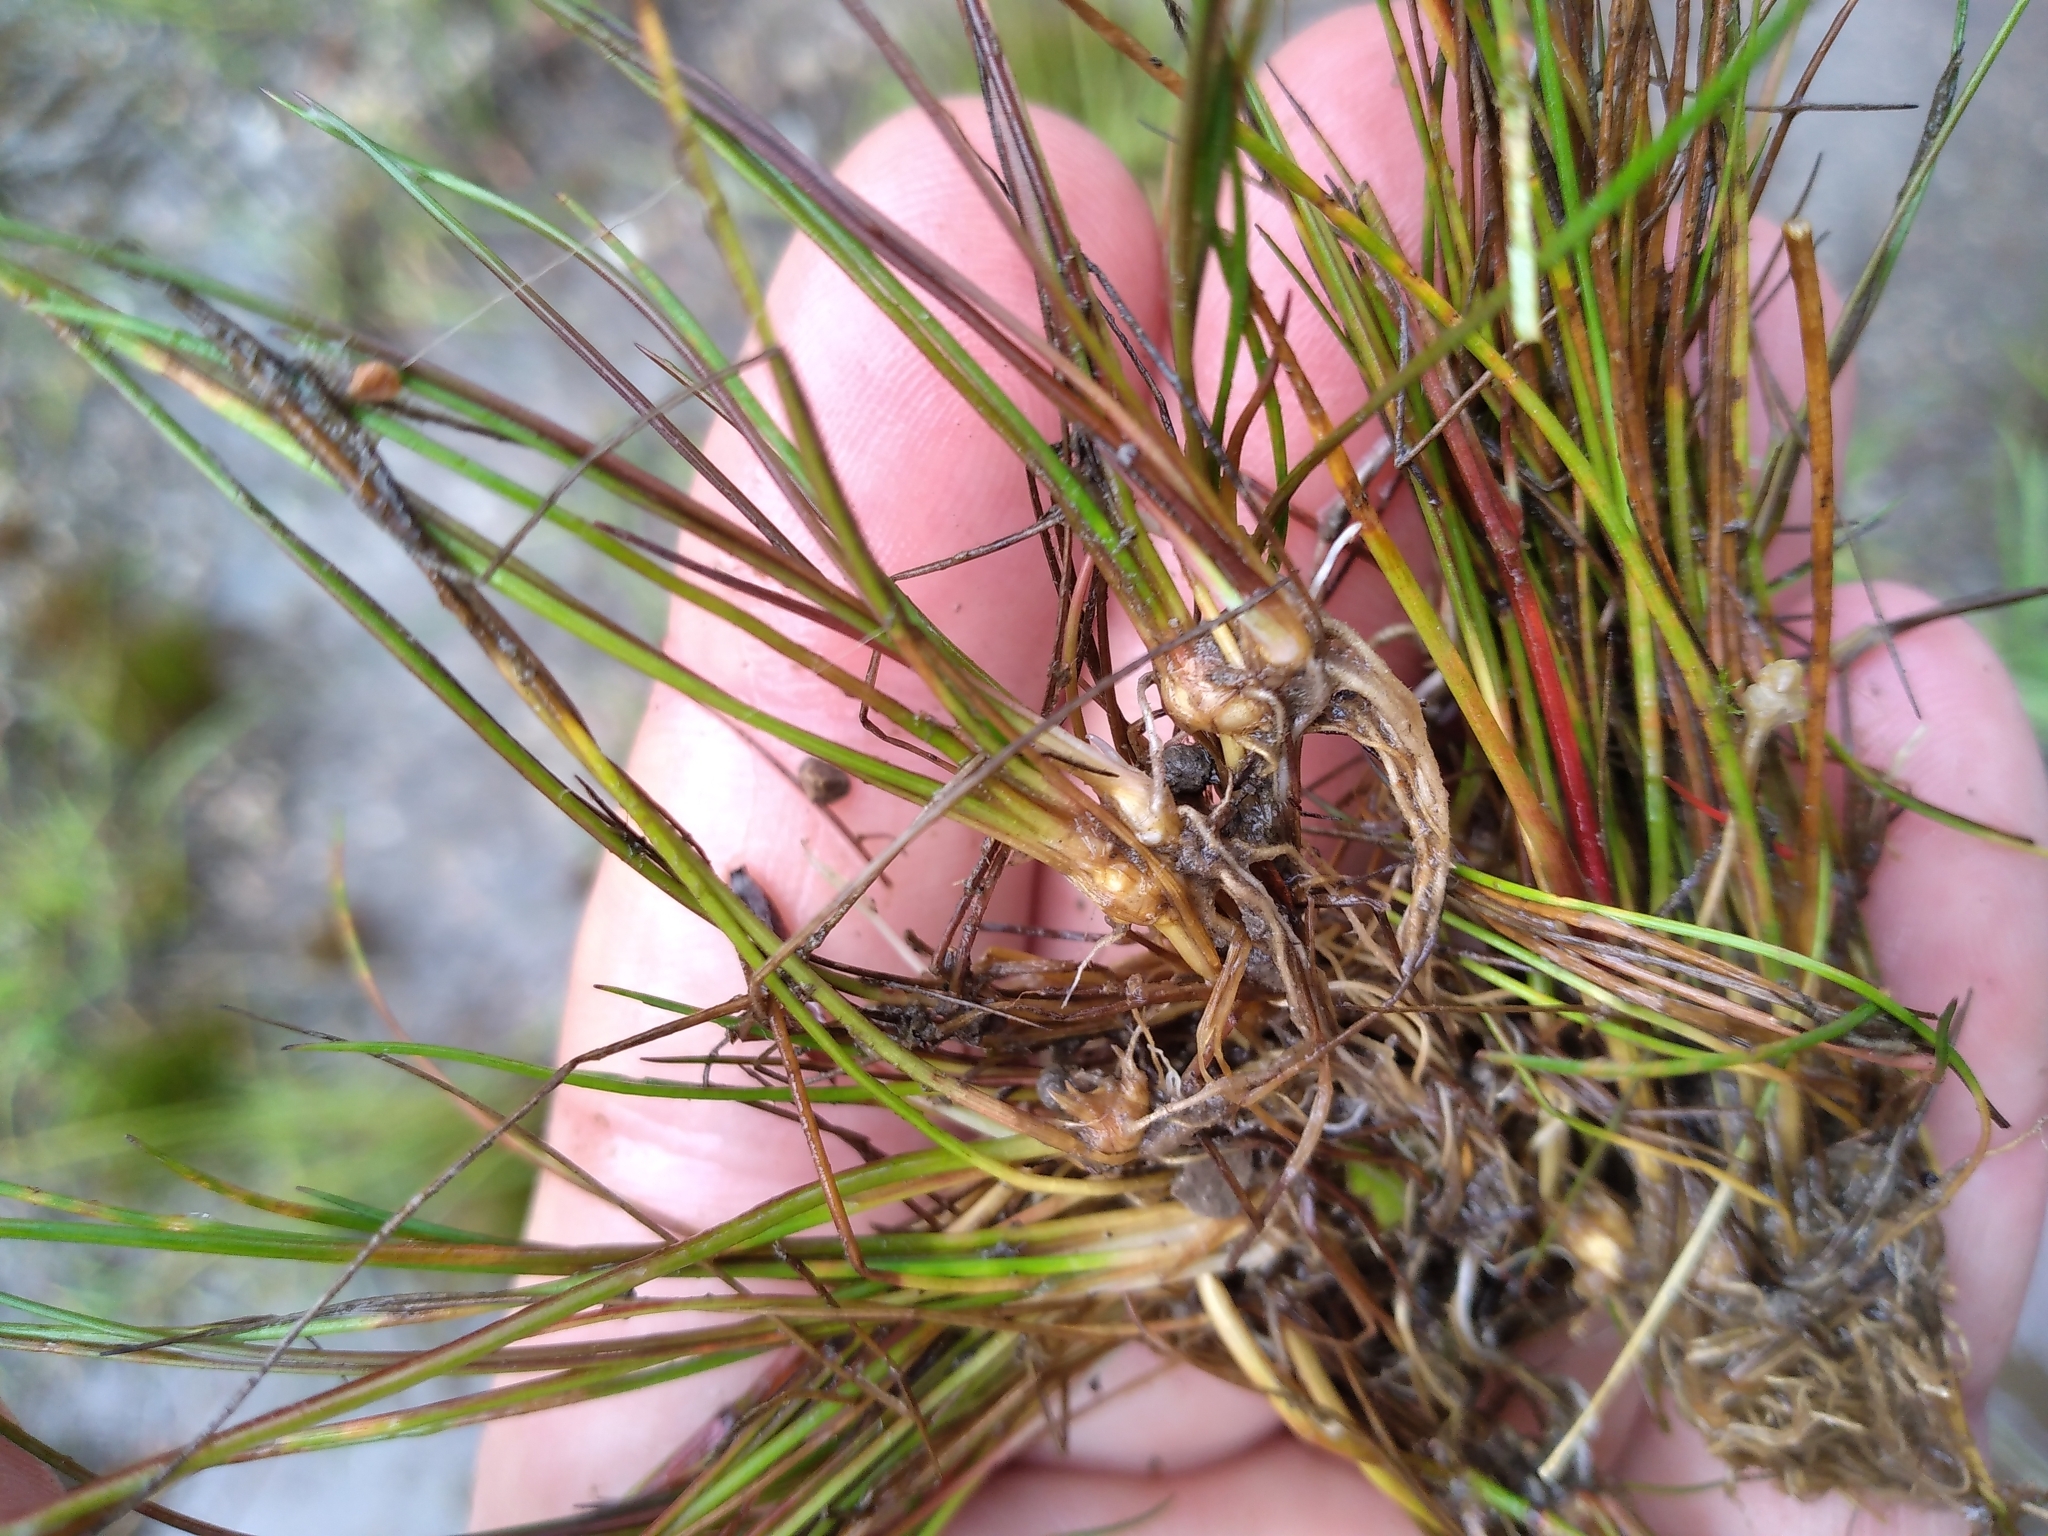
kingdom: Plantae
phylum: Tracheophyta
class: Liliopsida
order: Poales
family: Juncaceae
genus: Juncus
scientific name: Juncus bulbosus
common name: Bulbous rush
